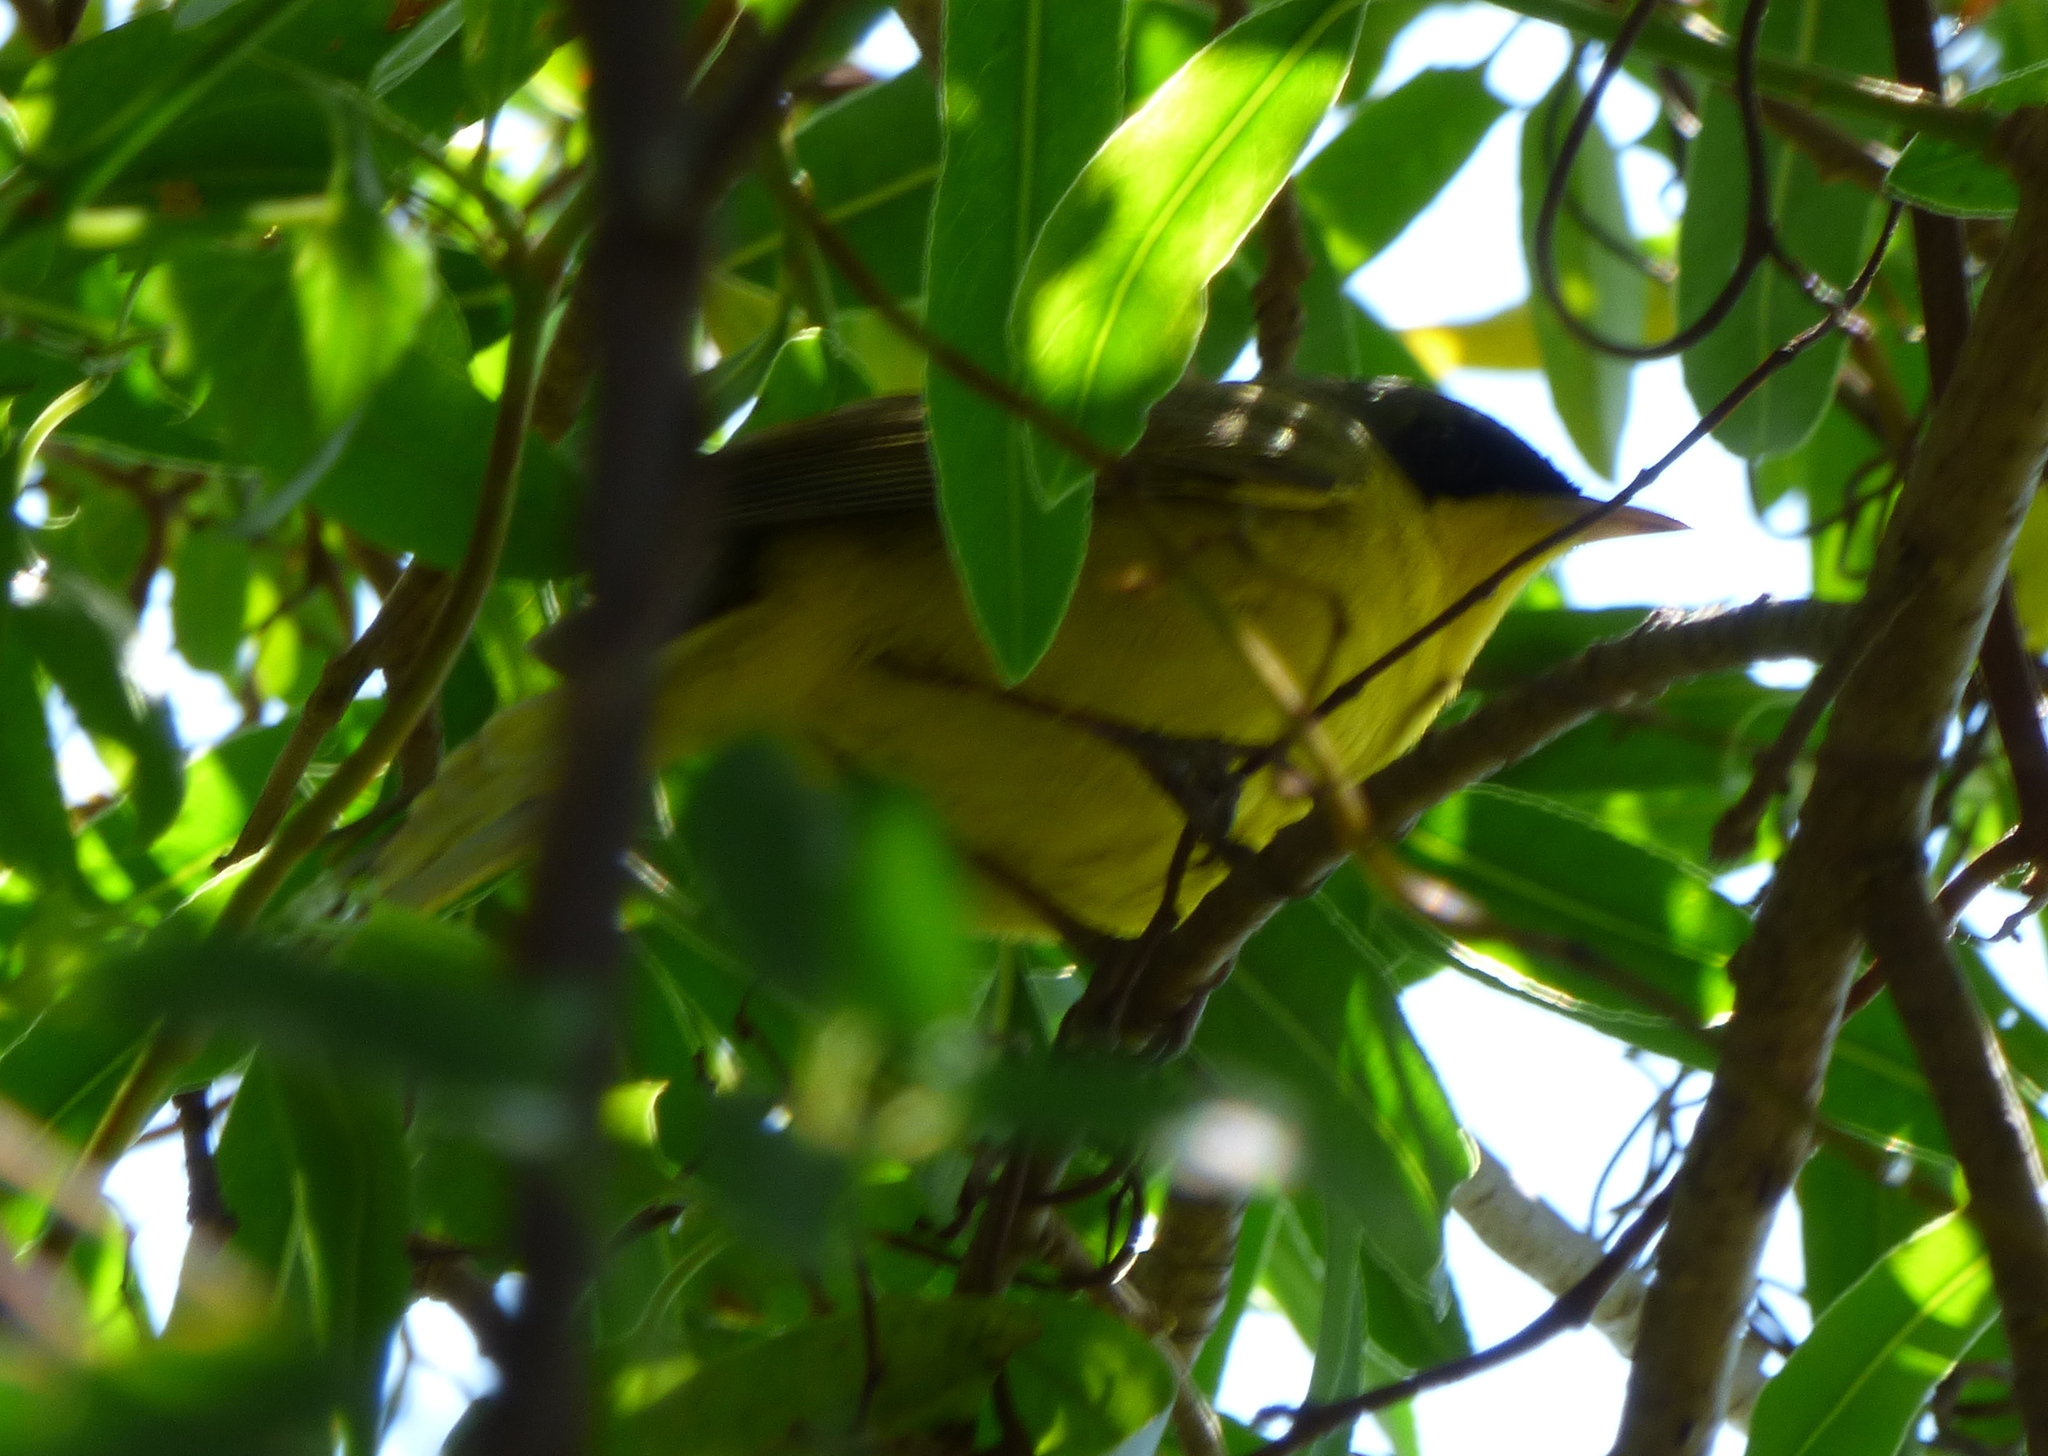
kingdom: Animalia
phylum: Chordata
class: Aves
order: Passeriformes
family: Parulidae
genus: Geothlypis
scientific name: Geothlypis velata
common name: Southern yellowthroat
